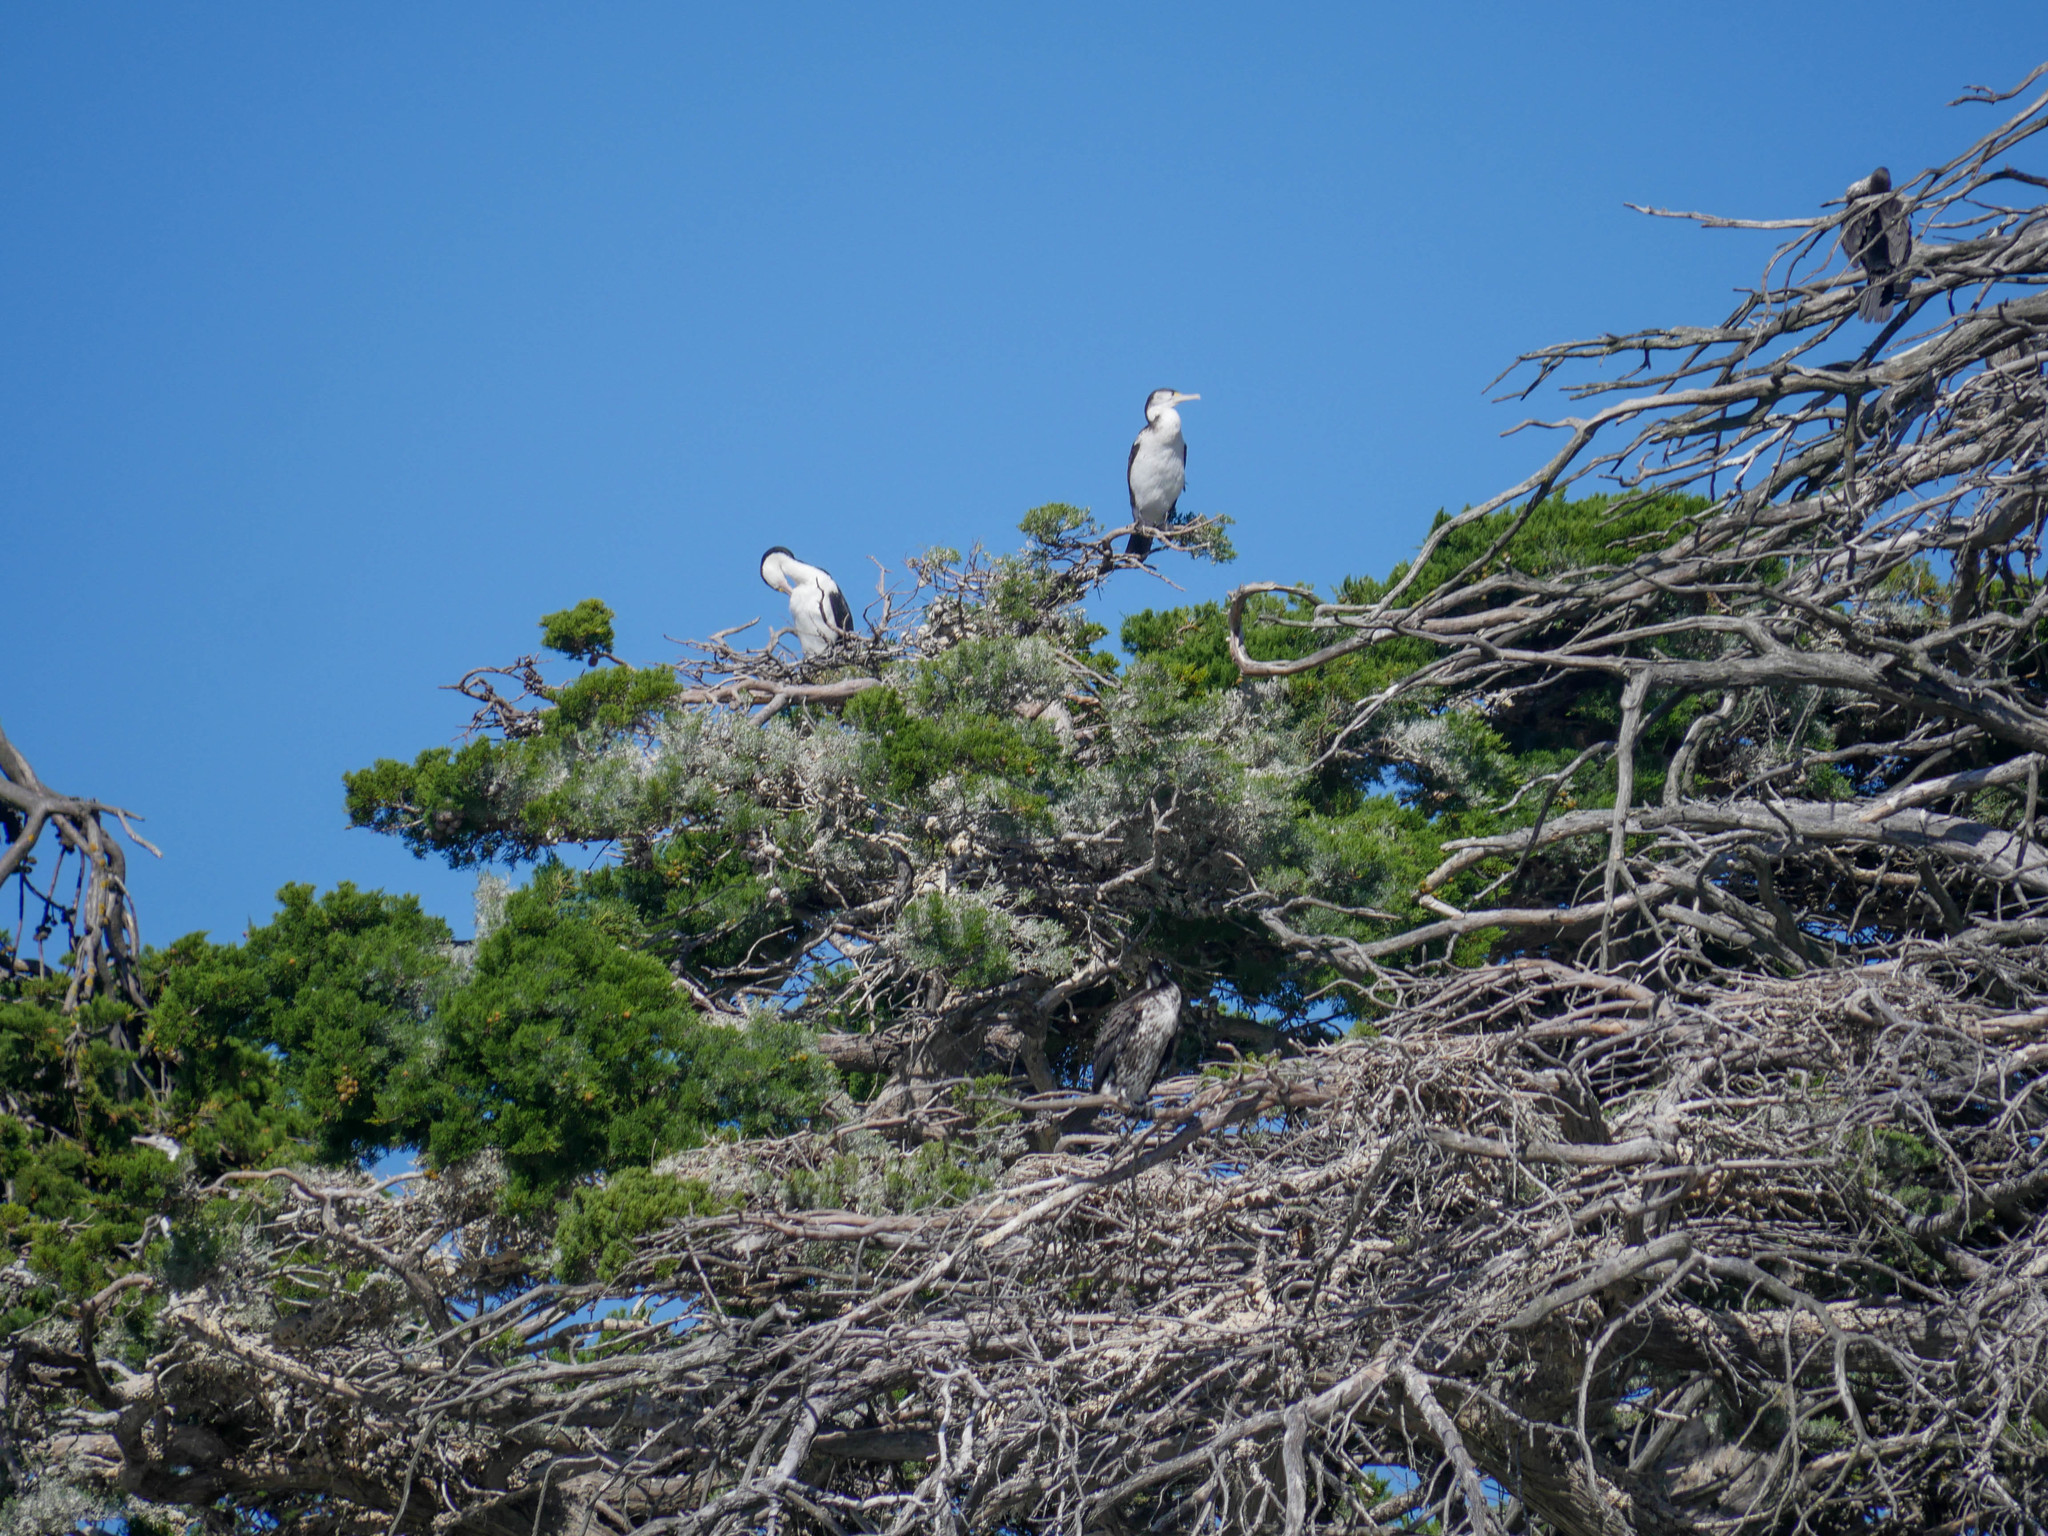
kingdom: Animalia
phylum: Chordata
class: Aves
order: Suliformes
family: Phalacrocoracidae
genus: Phalacrocorax
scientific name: Phalacrocorax varius
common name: Pied cormorant
